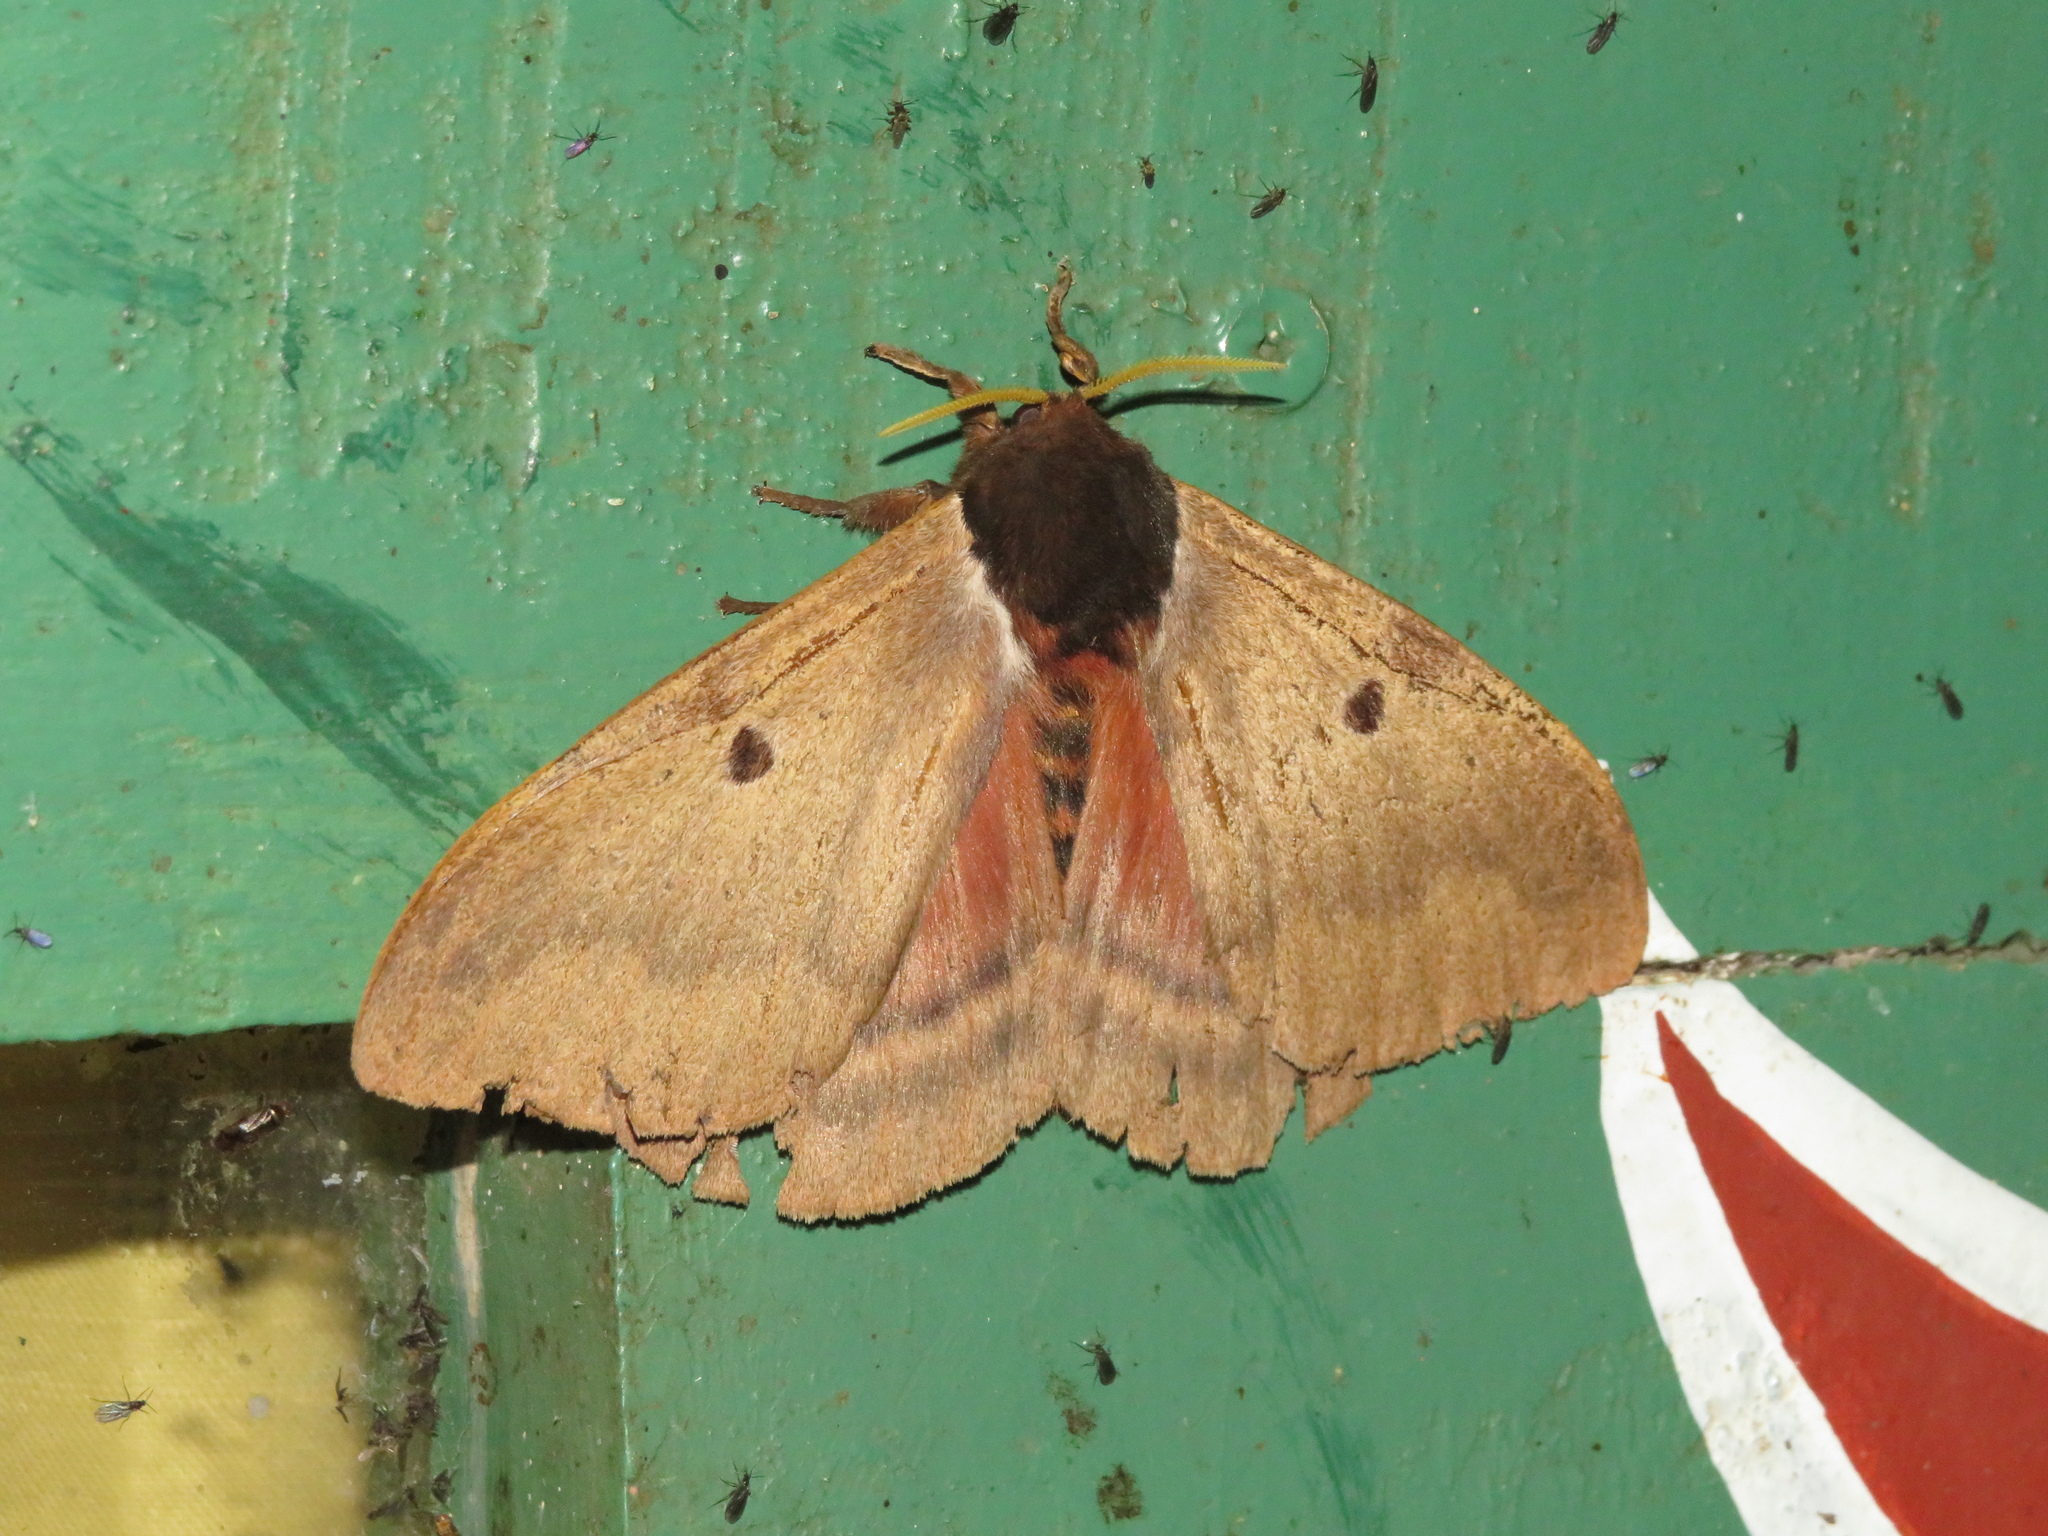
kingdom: Animalia
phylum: Arthropoda
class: Insecta
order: Lepidoptera
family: Saturniidae
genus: Dirphia
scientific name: Dirphia baroma
